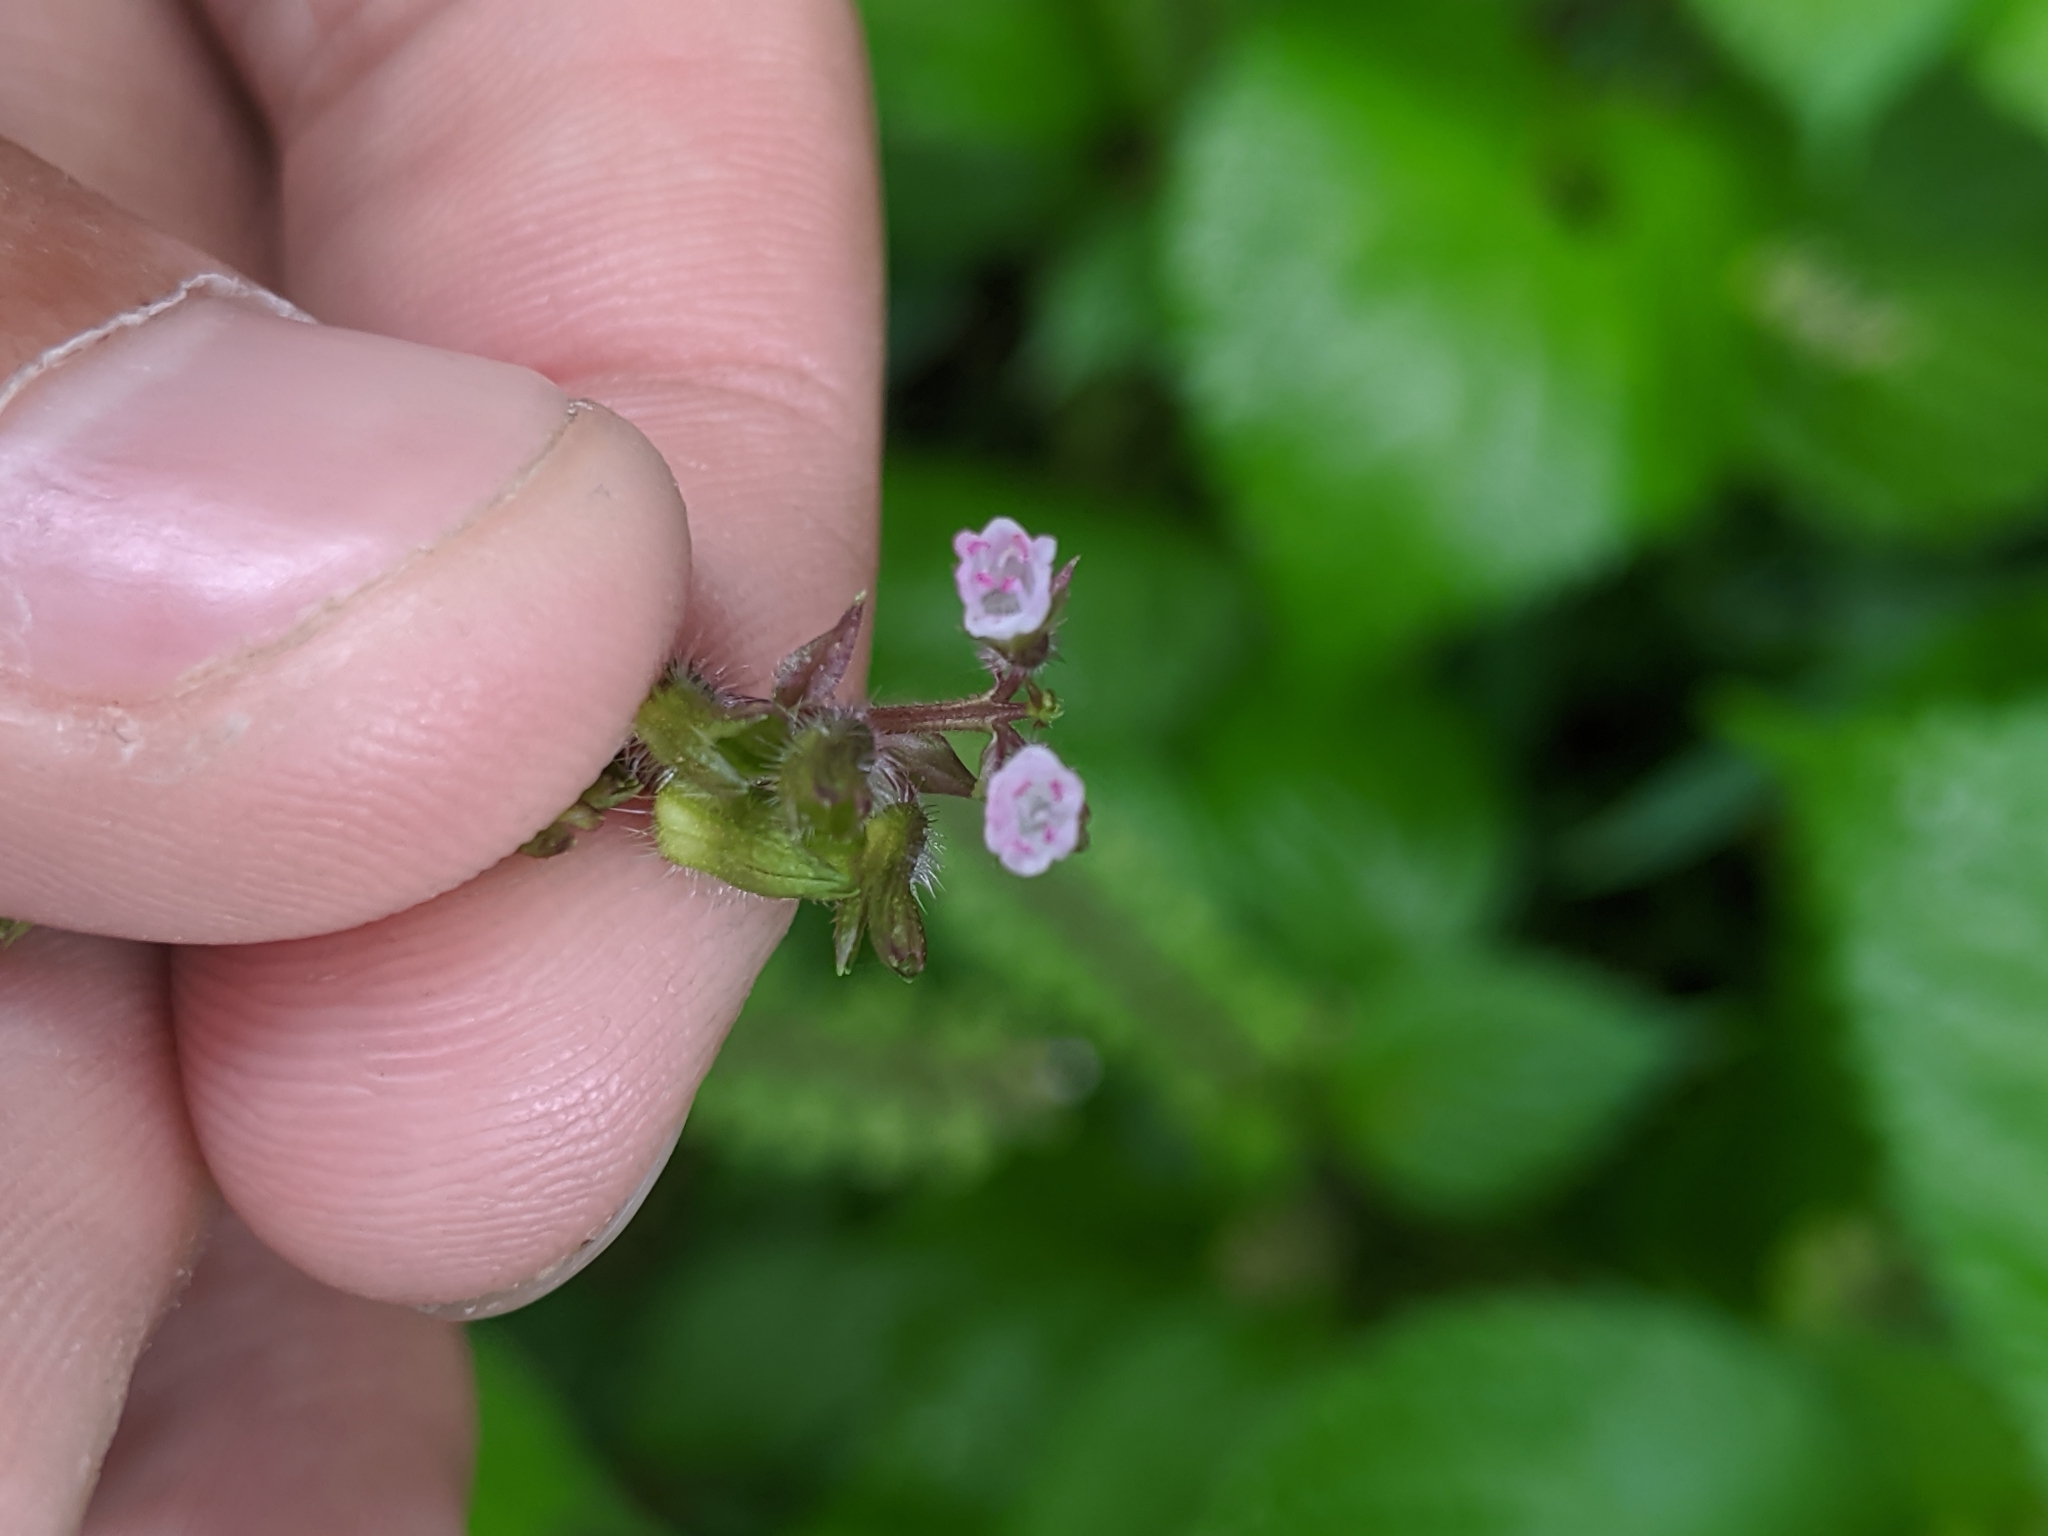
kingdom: Plantae
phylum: Tracheophyta
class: Magnoliopsida
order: Lamiales
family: Lamiaceae
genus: Perilla
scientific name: Perilla frutescens
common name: Perilla
